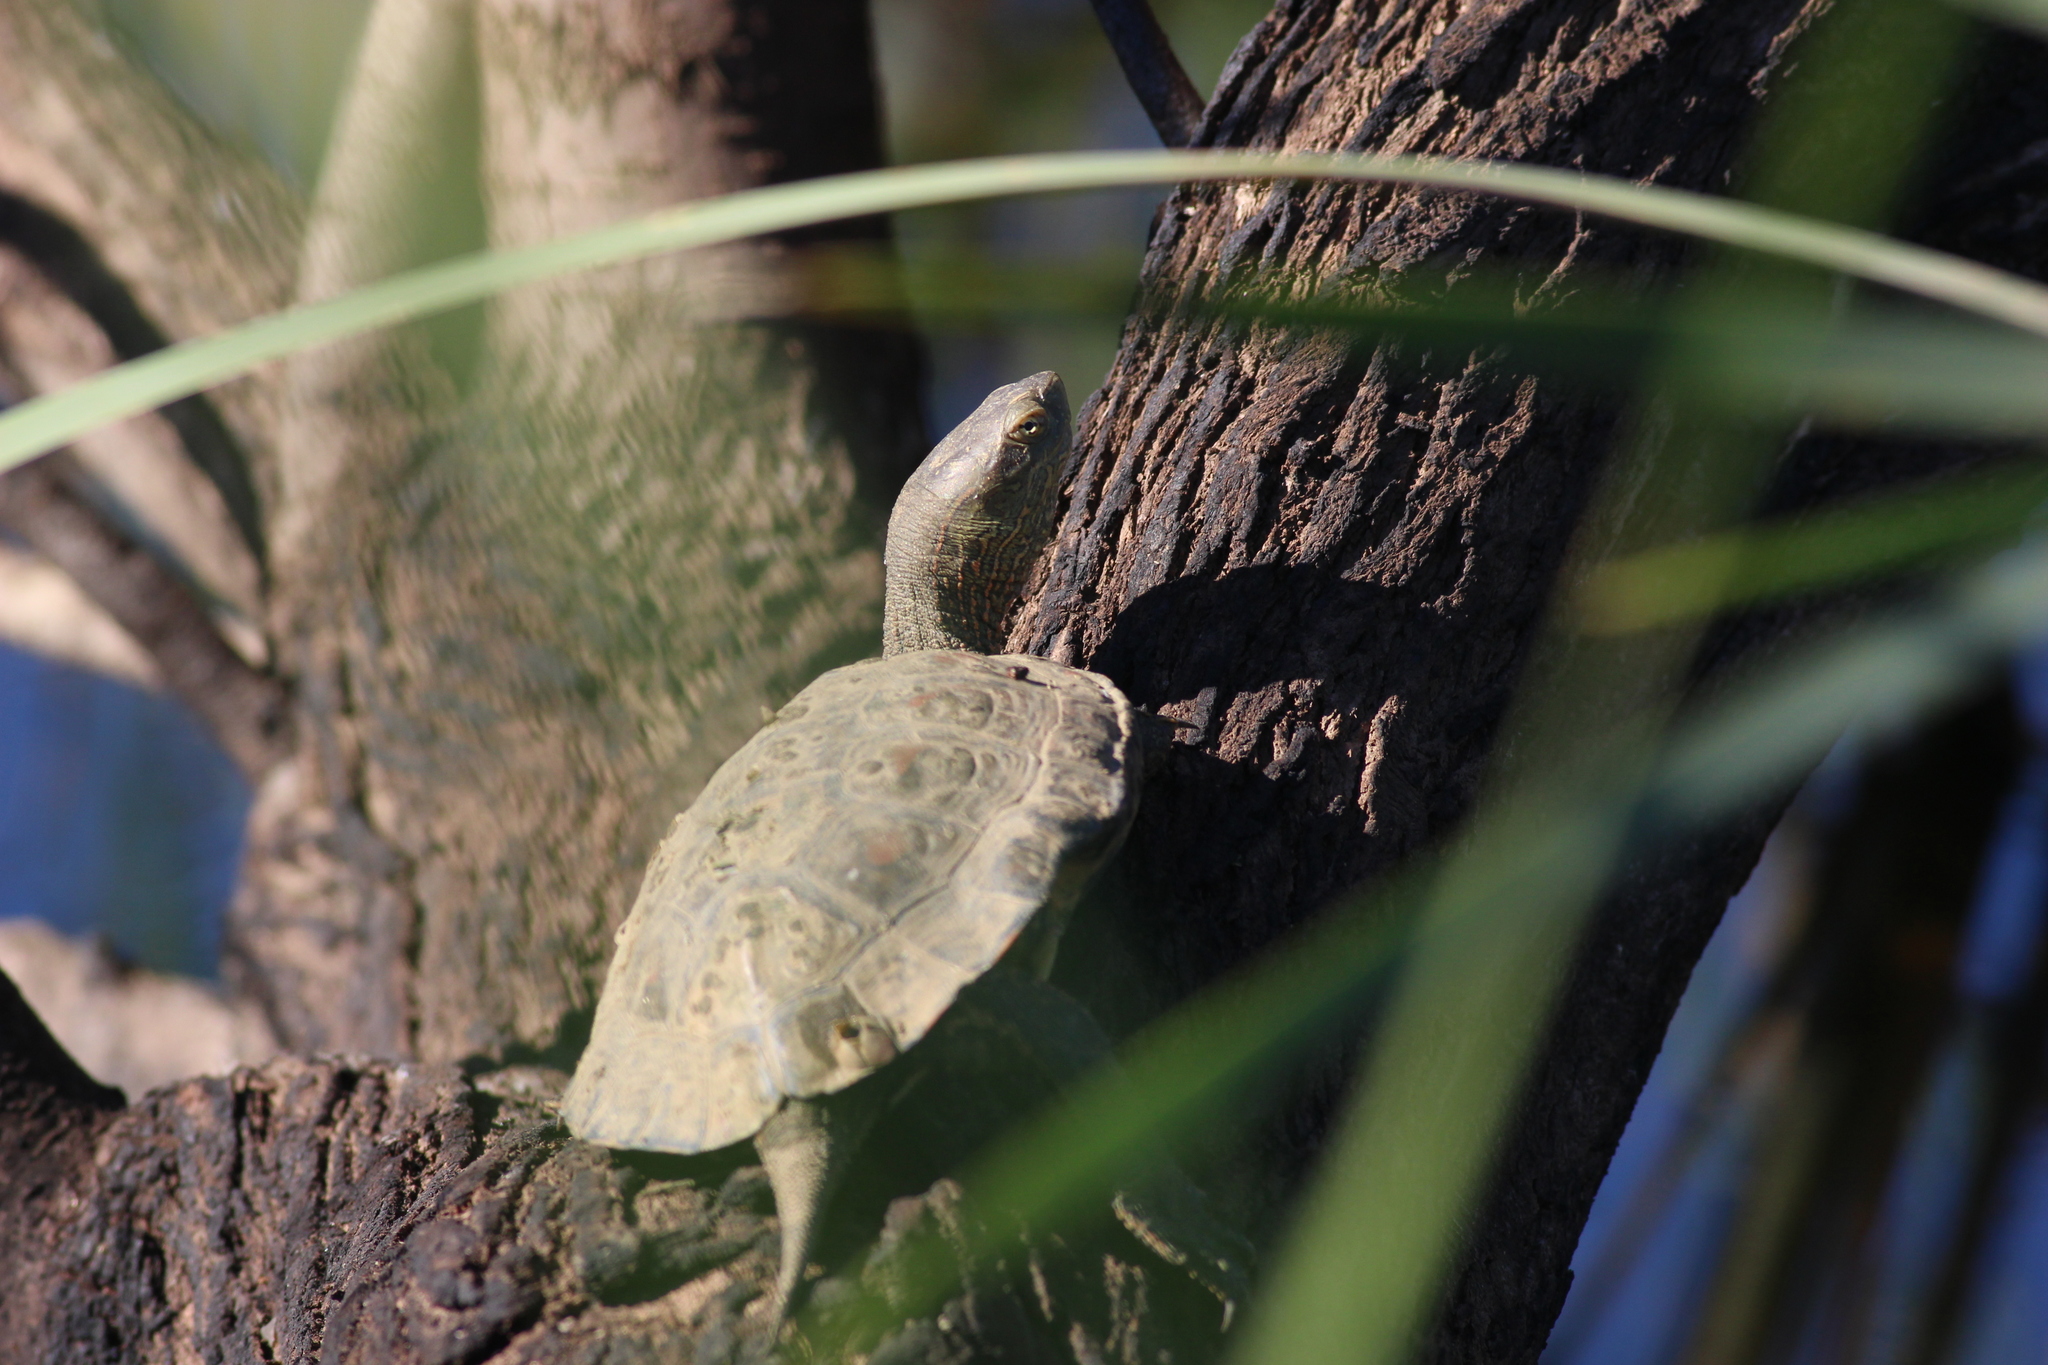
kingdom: Animalia
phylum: Chordata
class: Testudines
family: Geoemydidae
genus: Mauremys
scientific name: Mauremys leprosa
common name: Mediterranean pond turtle
